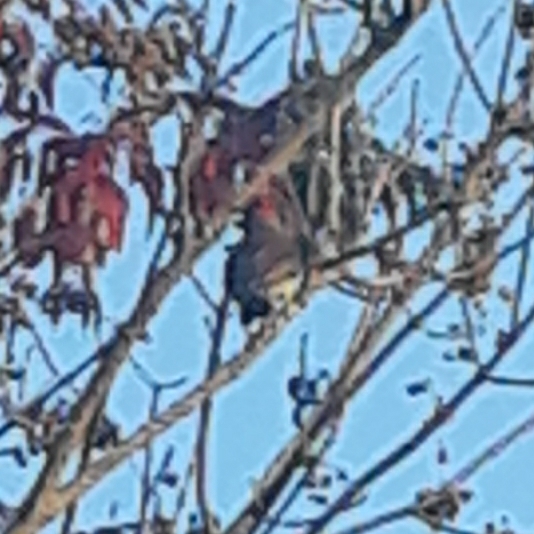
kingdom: Animalia
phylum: Chordata
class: Aves
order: Piciformes
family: Picidae
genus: Colaptes
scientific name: Colaptes auratus
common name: Northern flicker
